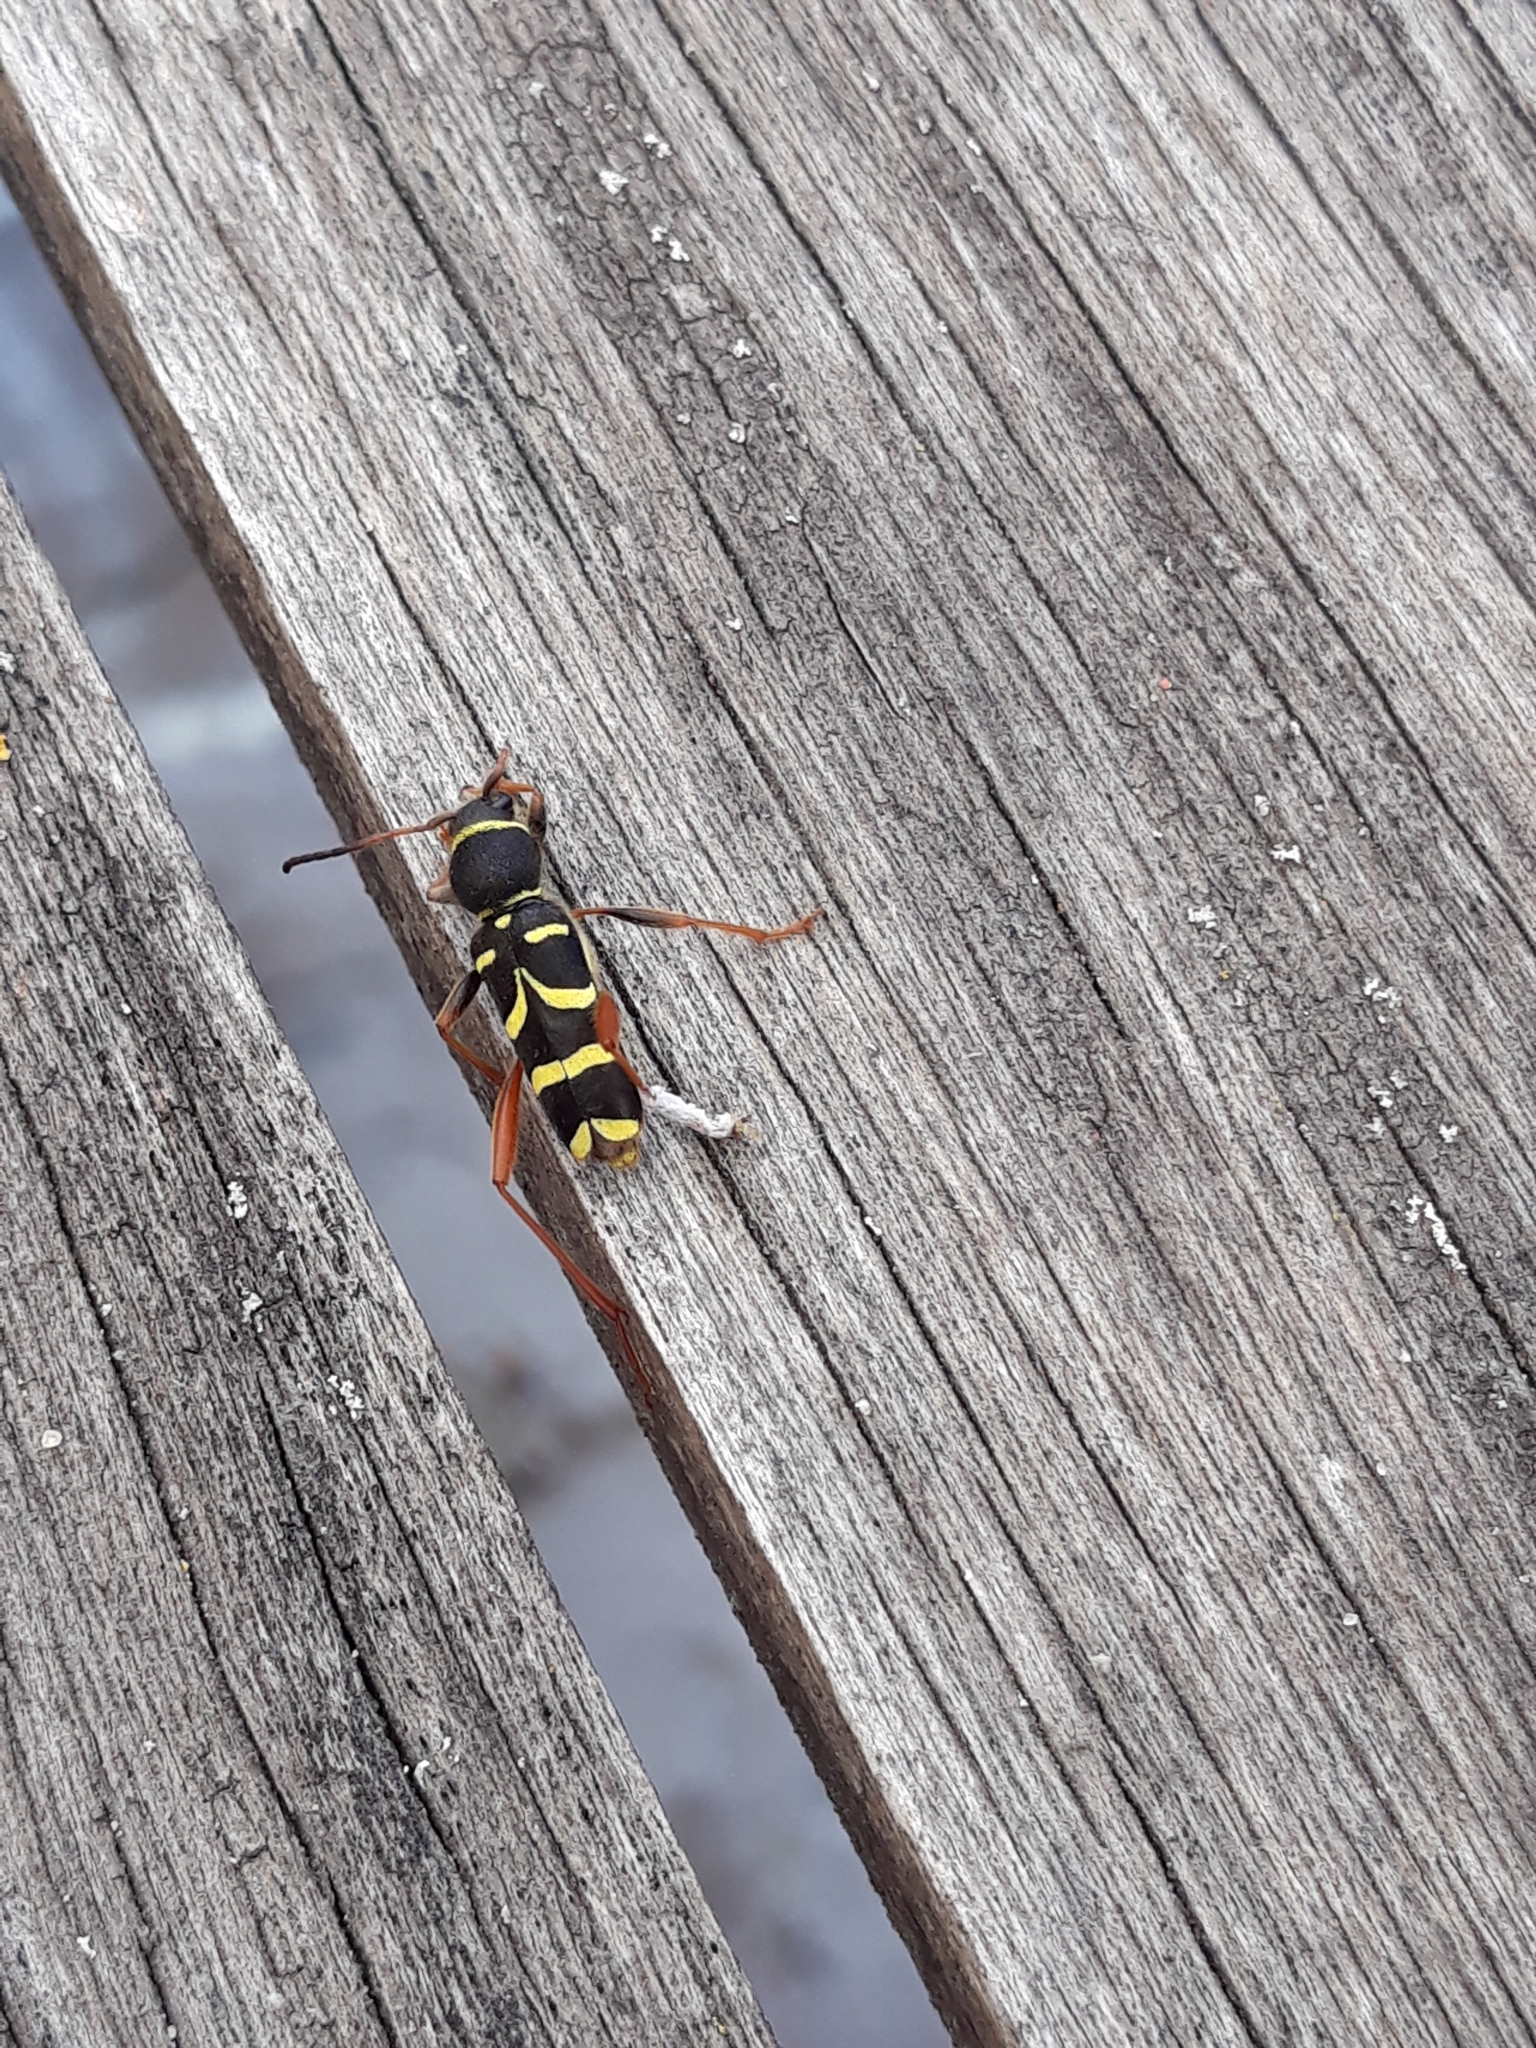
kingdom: Animalia
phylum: Arthropoda
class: Insecta
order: Coleoptera
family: Cerambycidae
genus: Clytus
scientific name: Clytus arietis
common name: Wasp beetle
